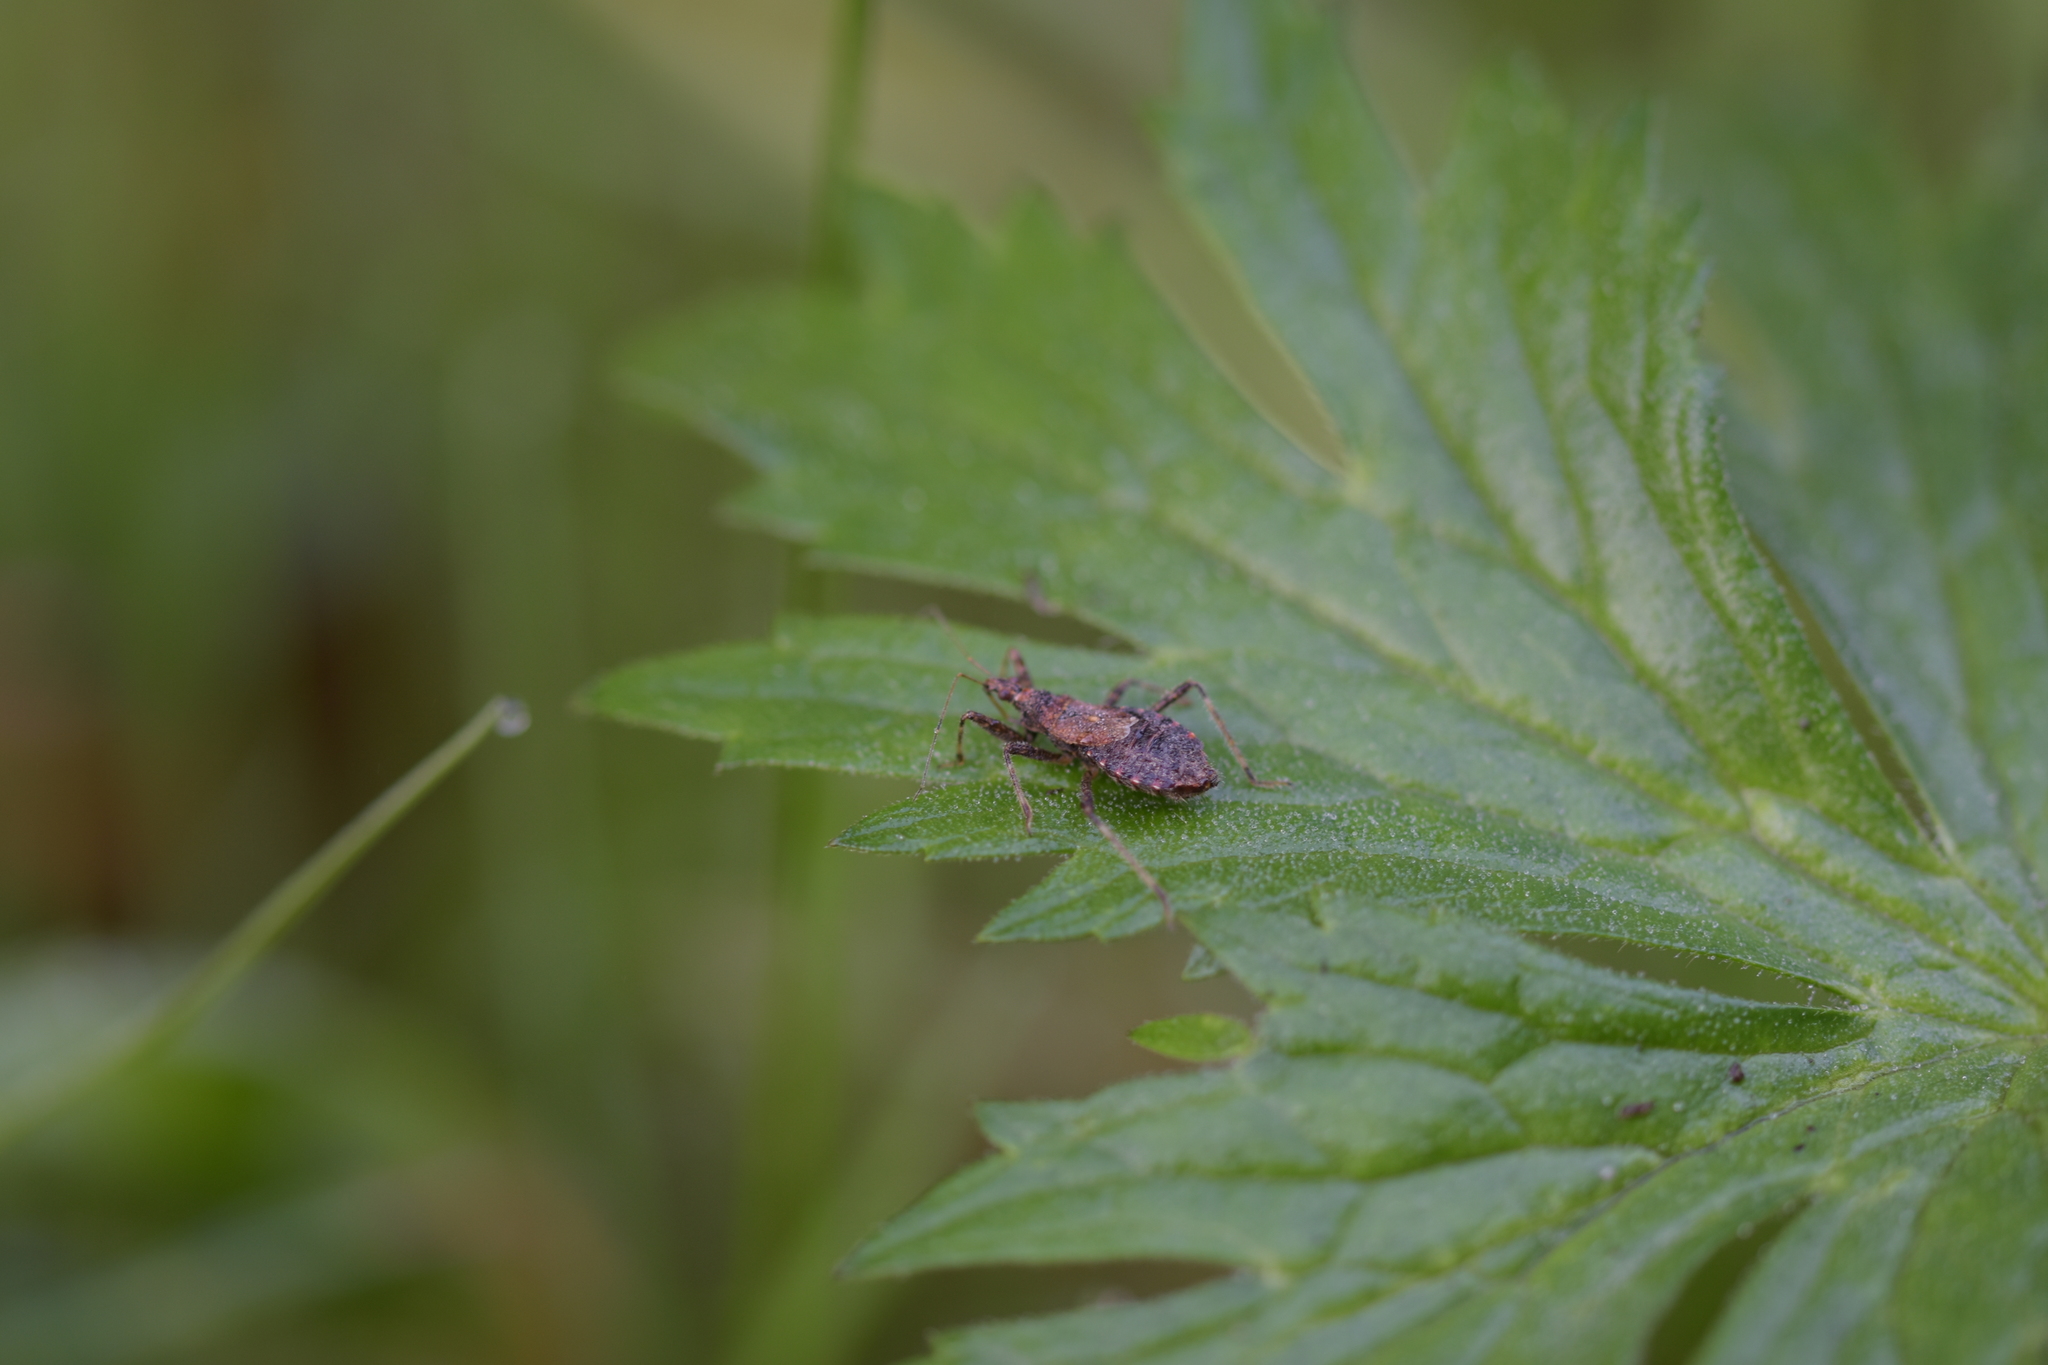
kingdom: Animalia
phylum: Arthropoda
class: Insecta
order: Hemiptera
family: Nabidae
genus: Himacerus
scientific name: Himacerus apterus
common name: Tree damsel bug
